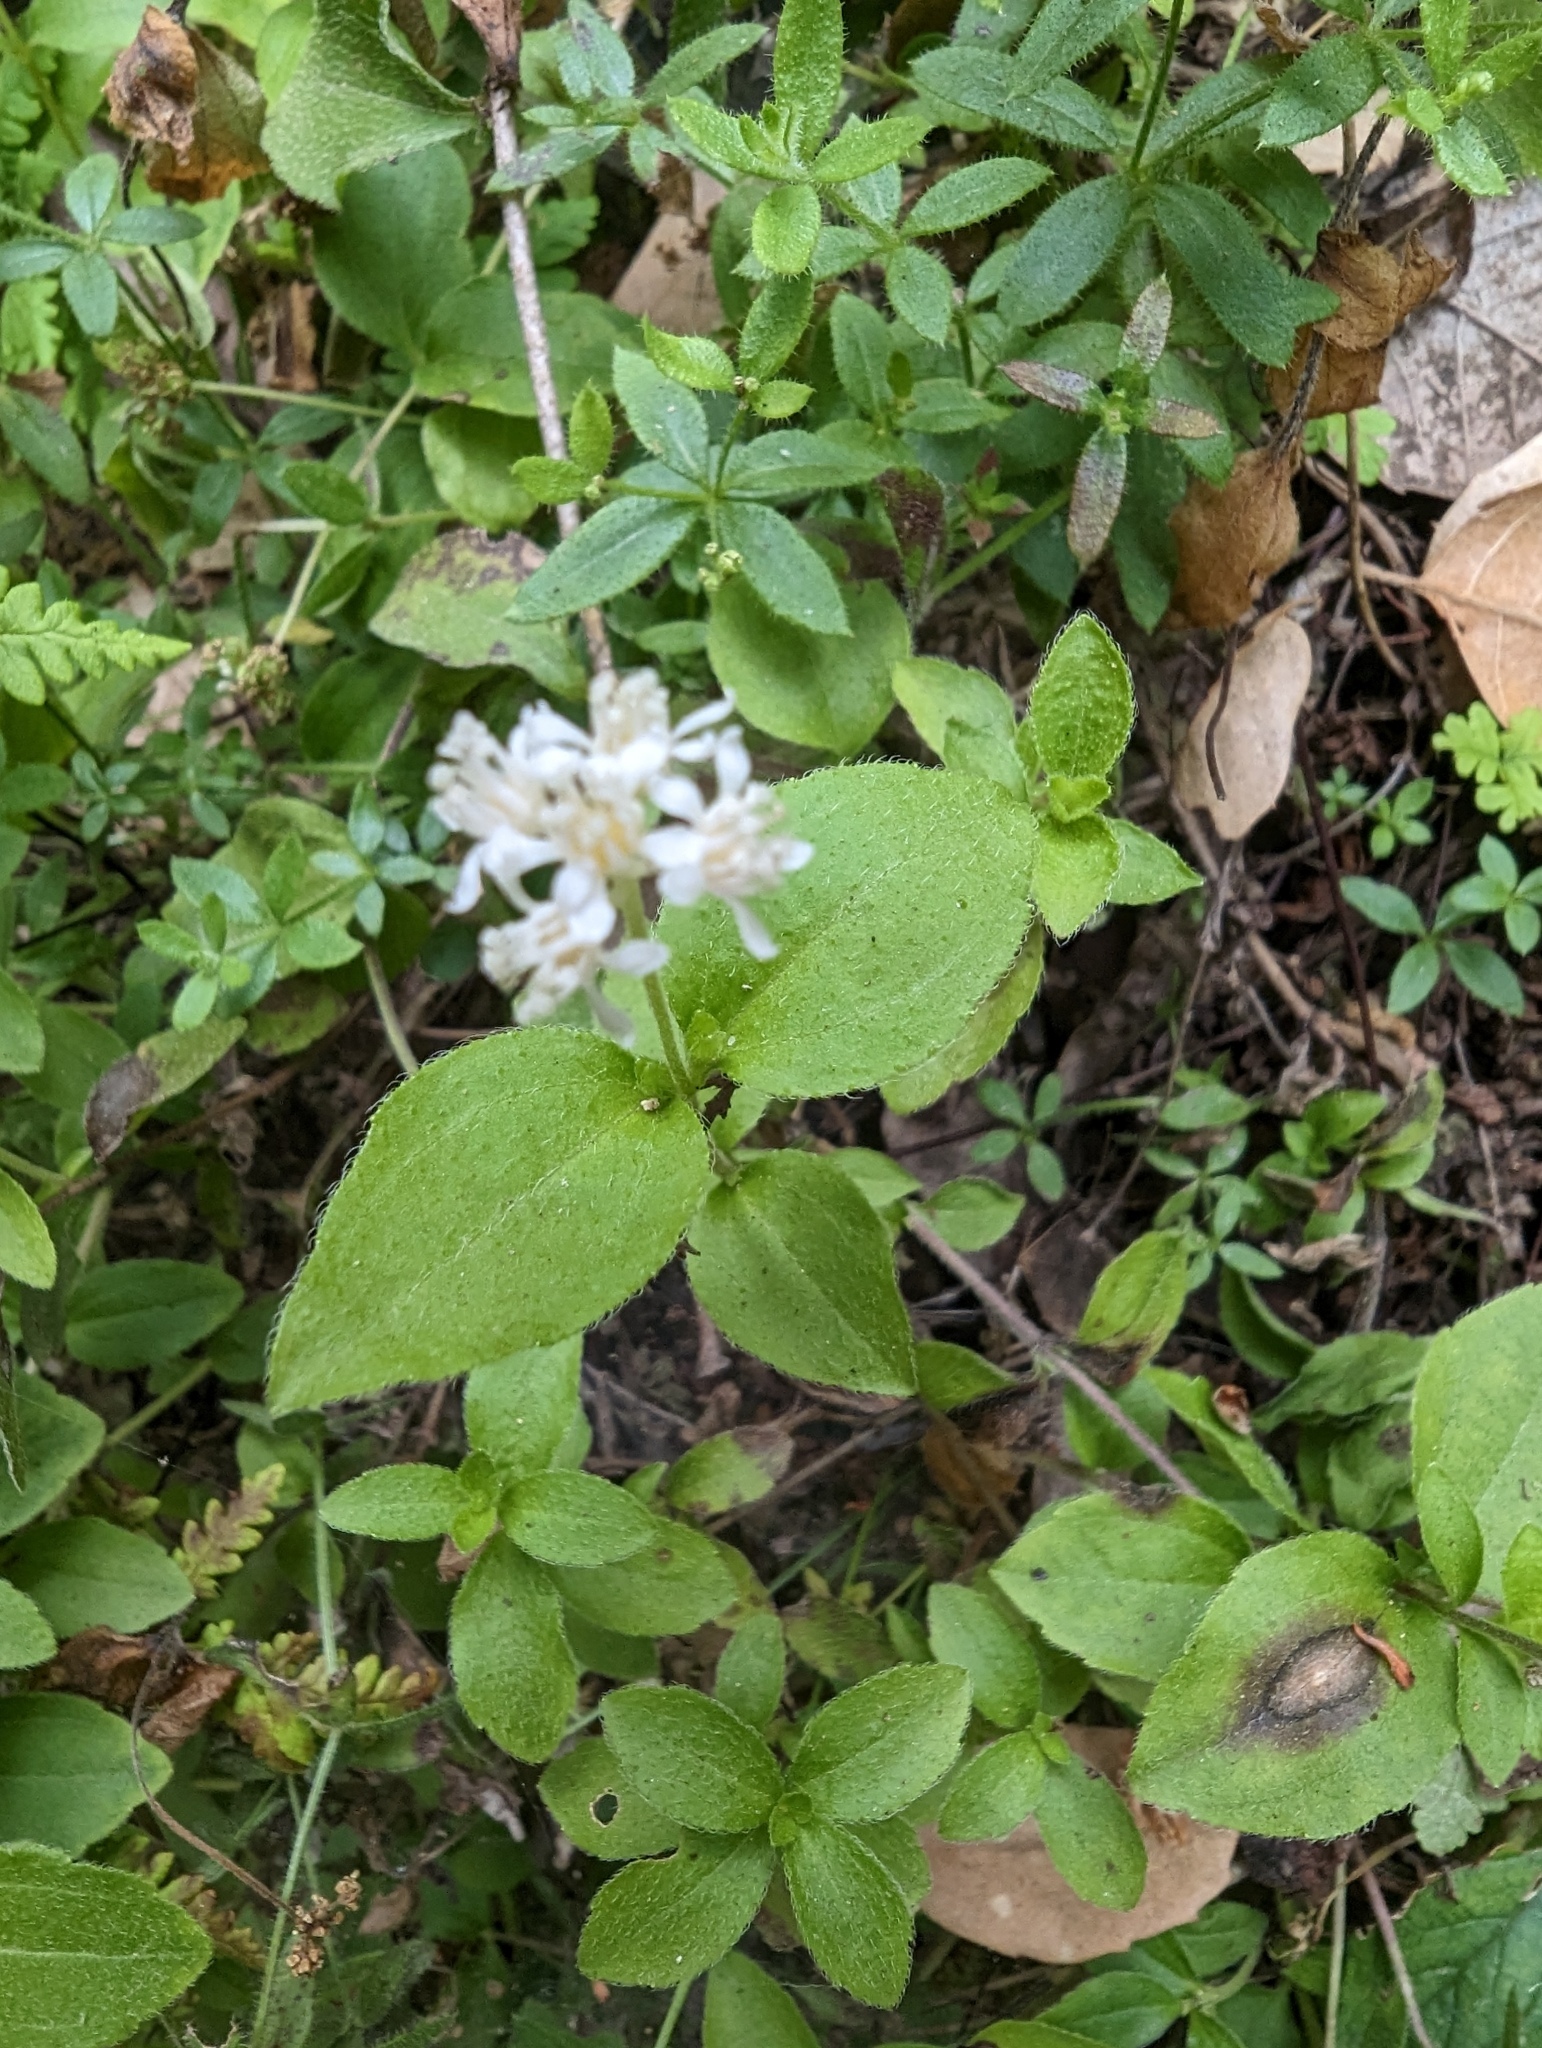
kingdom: Plantae
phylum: Tracheophyta
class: Magnoliopsida
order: Cornales
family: Hydrangeaceae
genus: Whipplea
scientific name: Whipplea modesta
